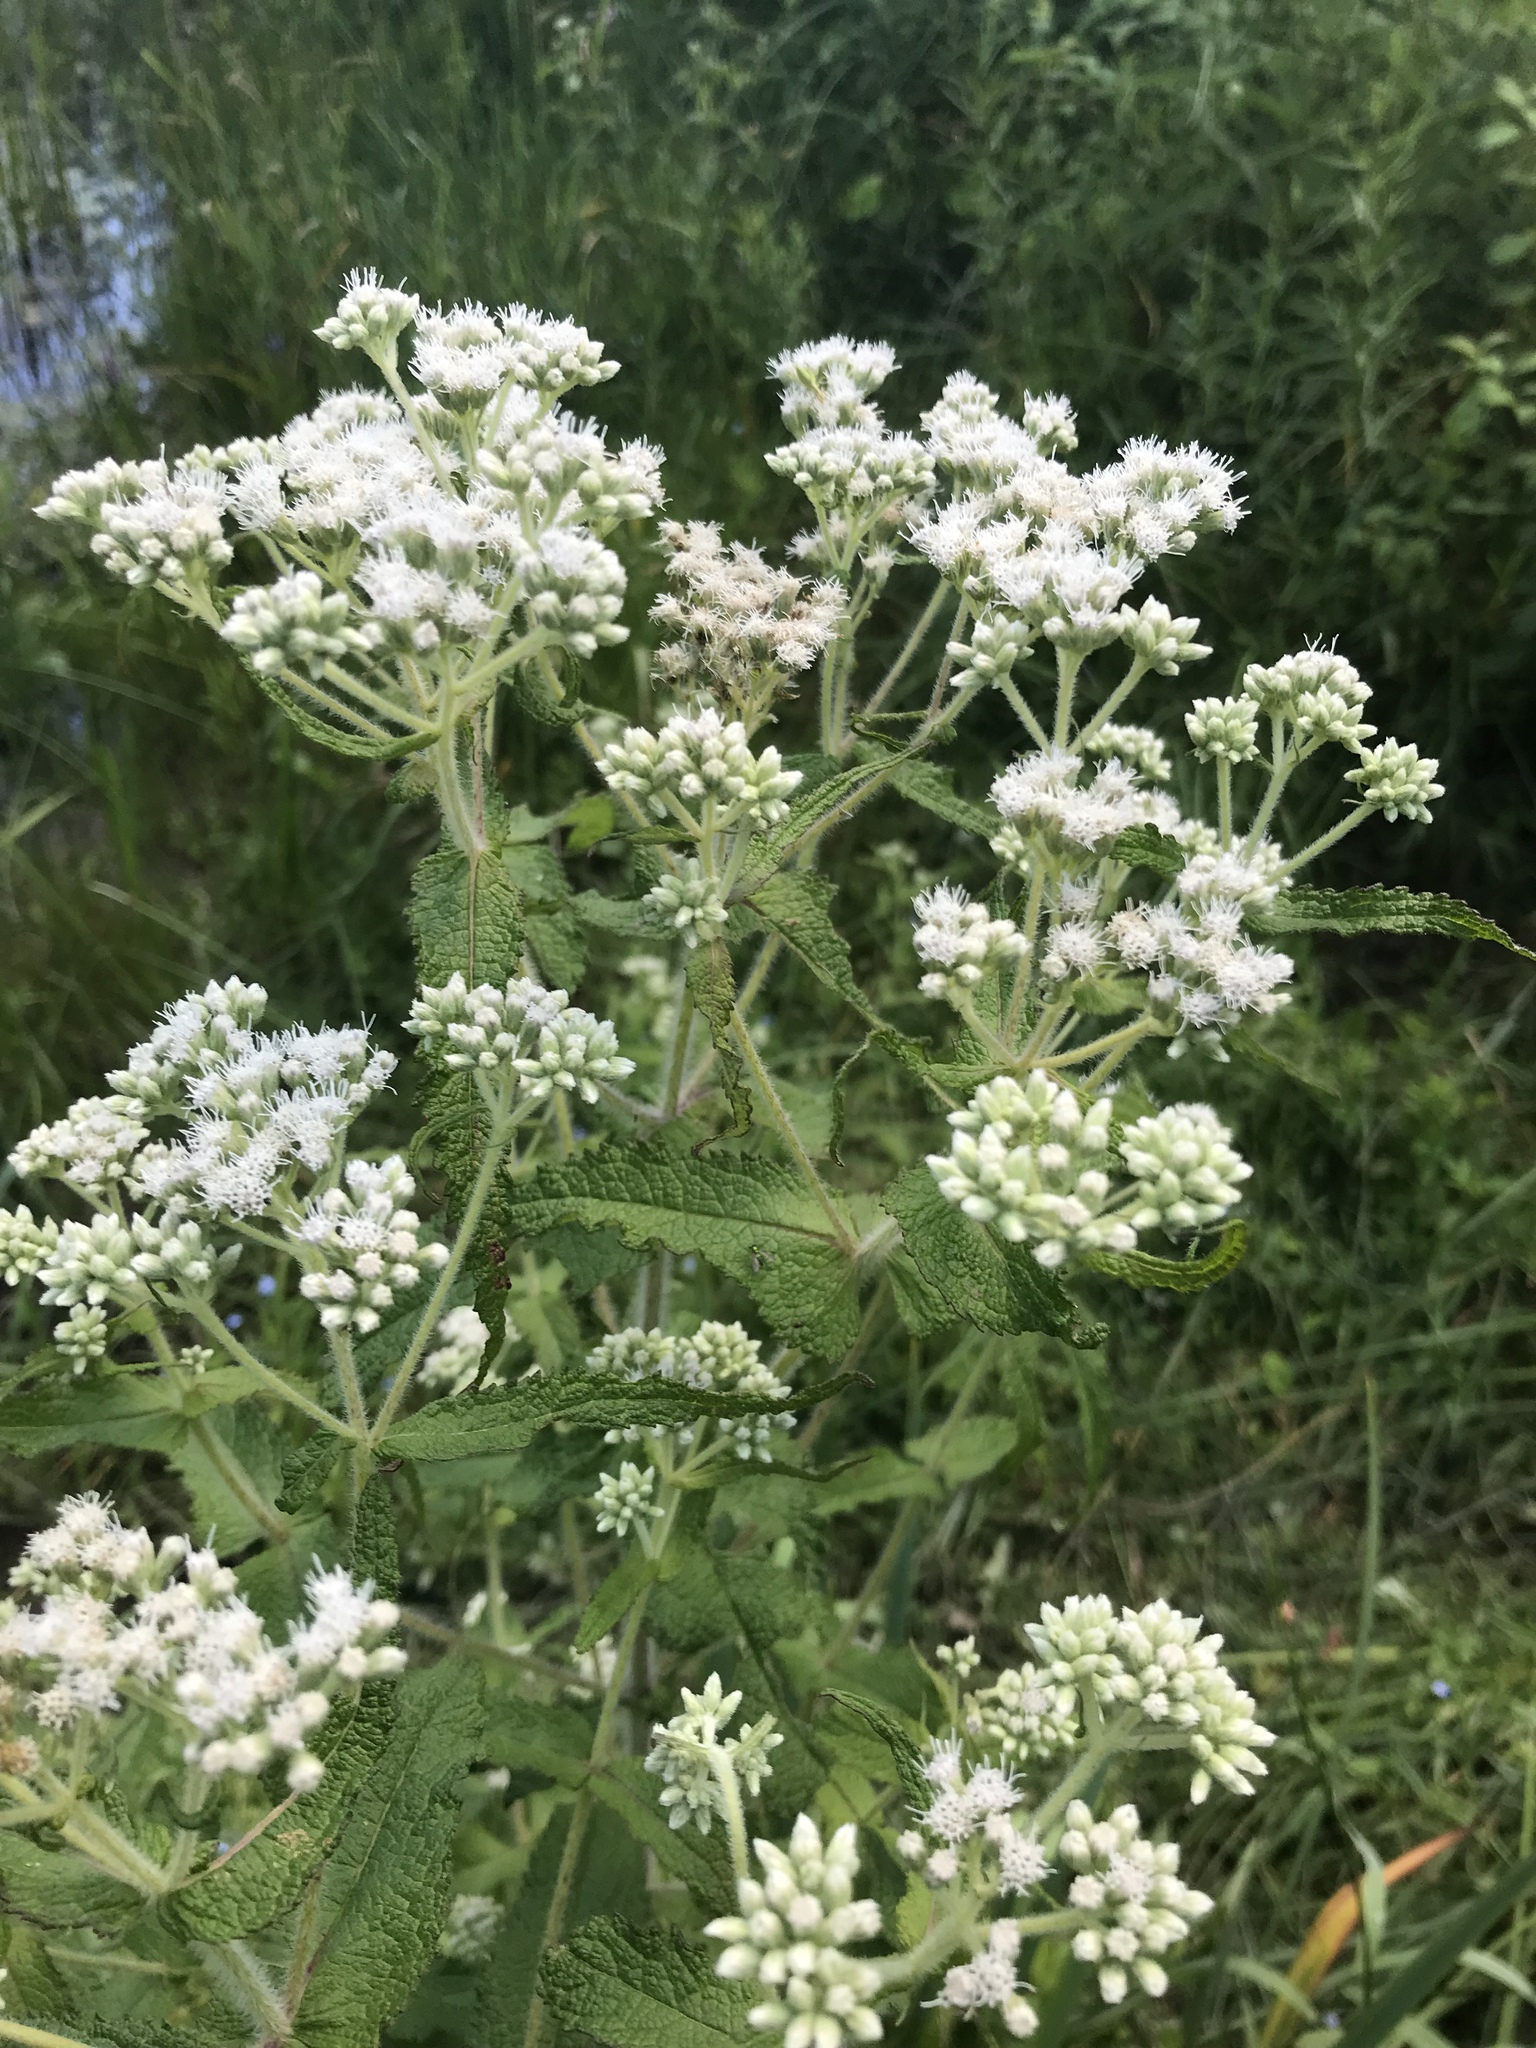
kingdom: Plantae
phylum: Tracheophyta
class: Magnoliopsida
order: Asterales
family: Asteraceae
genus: Eupatorium
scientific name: Eupatorium perfoliatum
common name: Boneset
